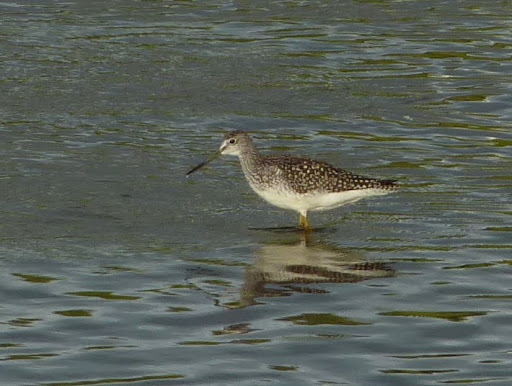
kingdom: Animalia
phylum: Chordata
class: Aves
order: Charadriiformes
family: Scolopacidae
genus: Tringa
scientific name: Tringa melanoleuca
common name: Greater yellowlegs
